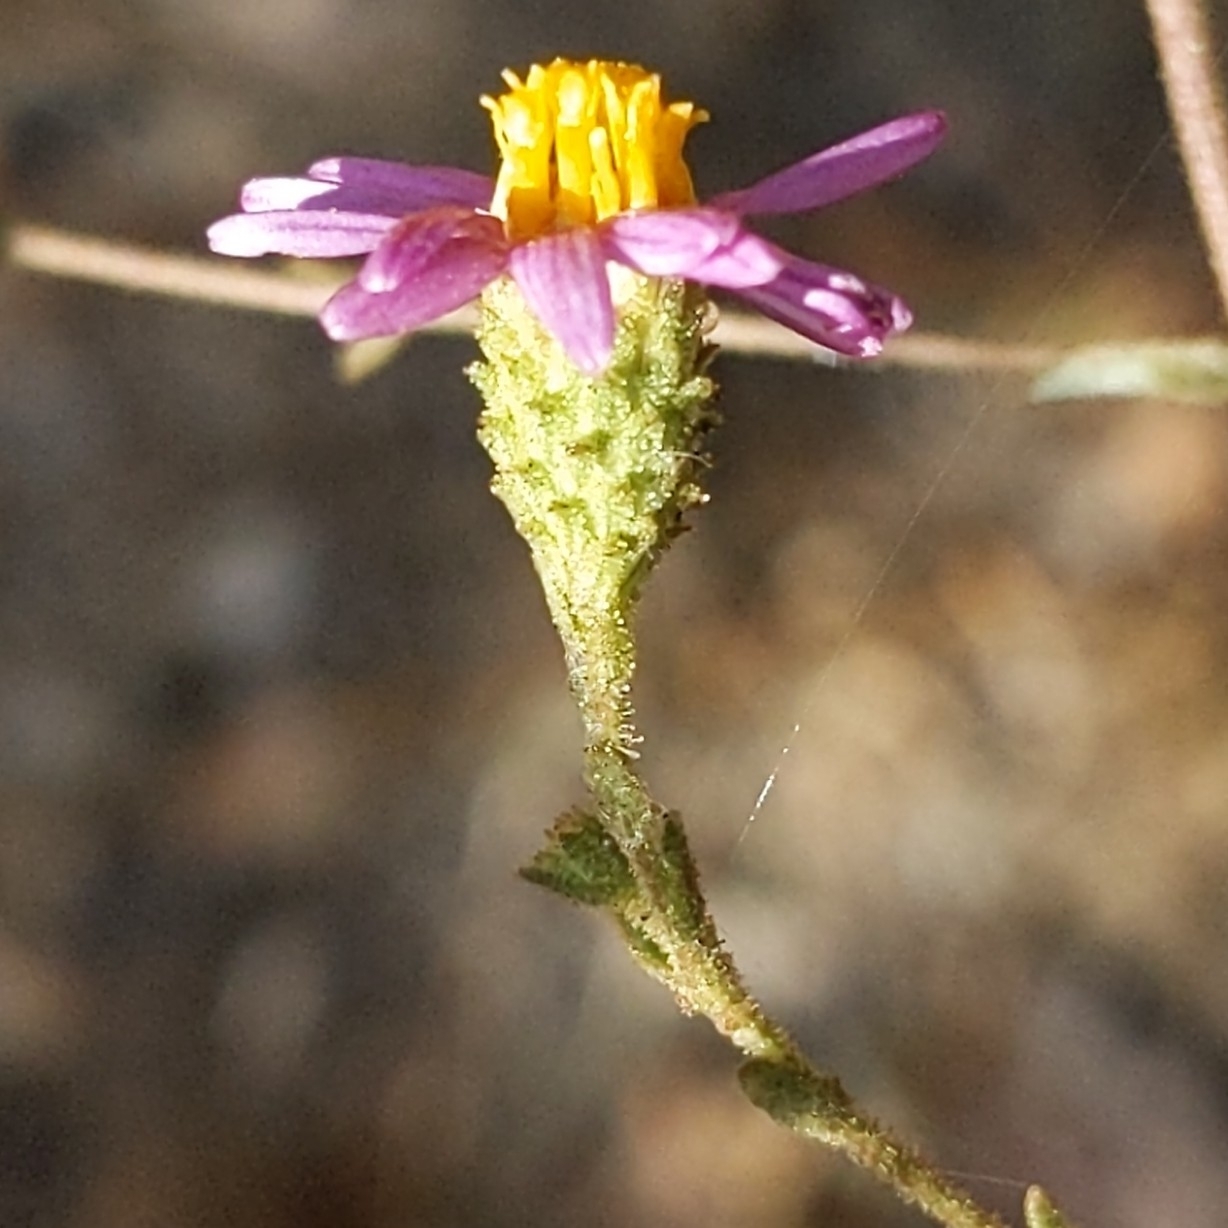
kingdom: Plantae
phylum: Tracheophyta
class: Magnoliopsida
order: Asterales
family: Asteraceae
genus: Corethrogyne
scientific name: Corethrogyne filaginifolia
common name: Sand-aster
